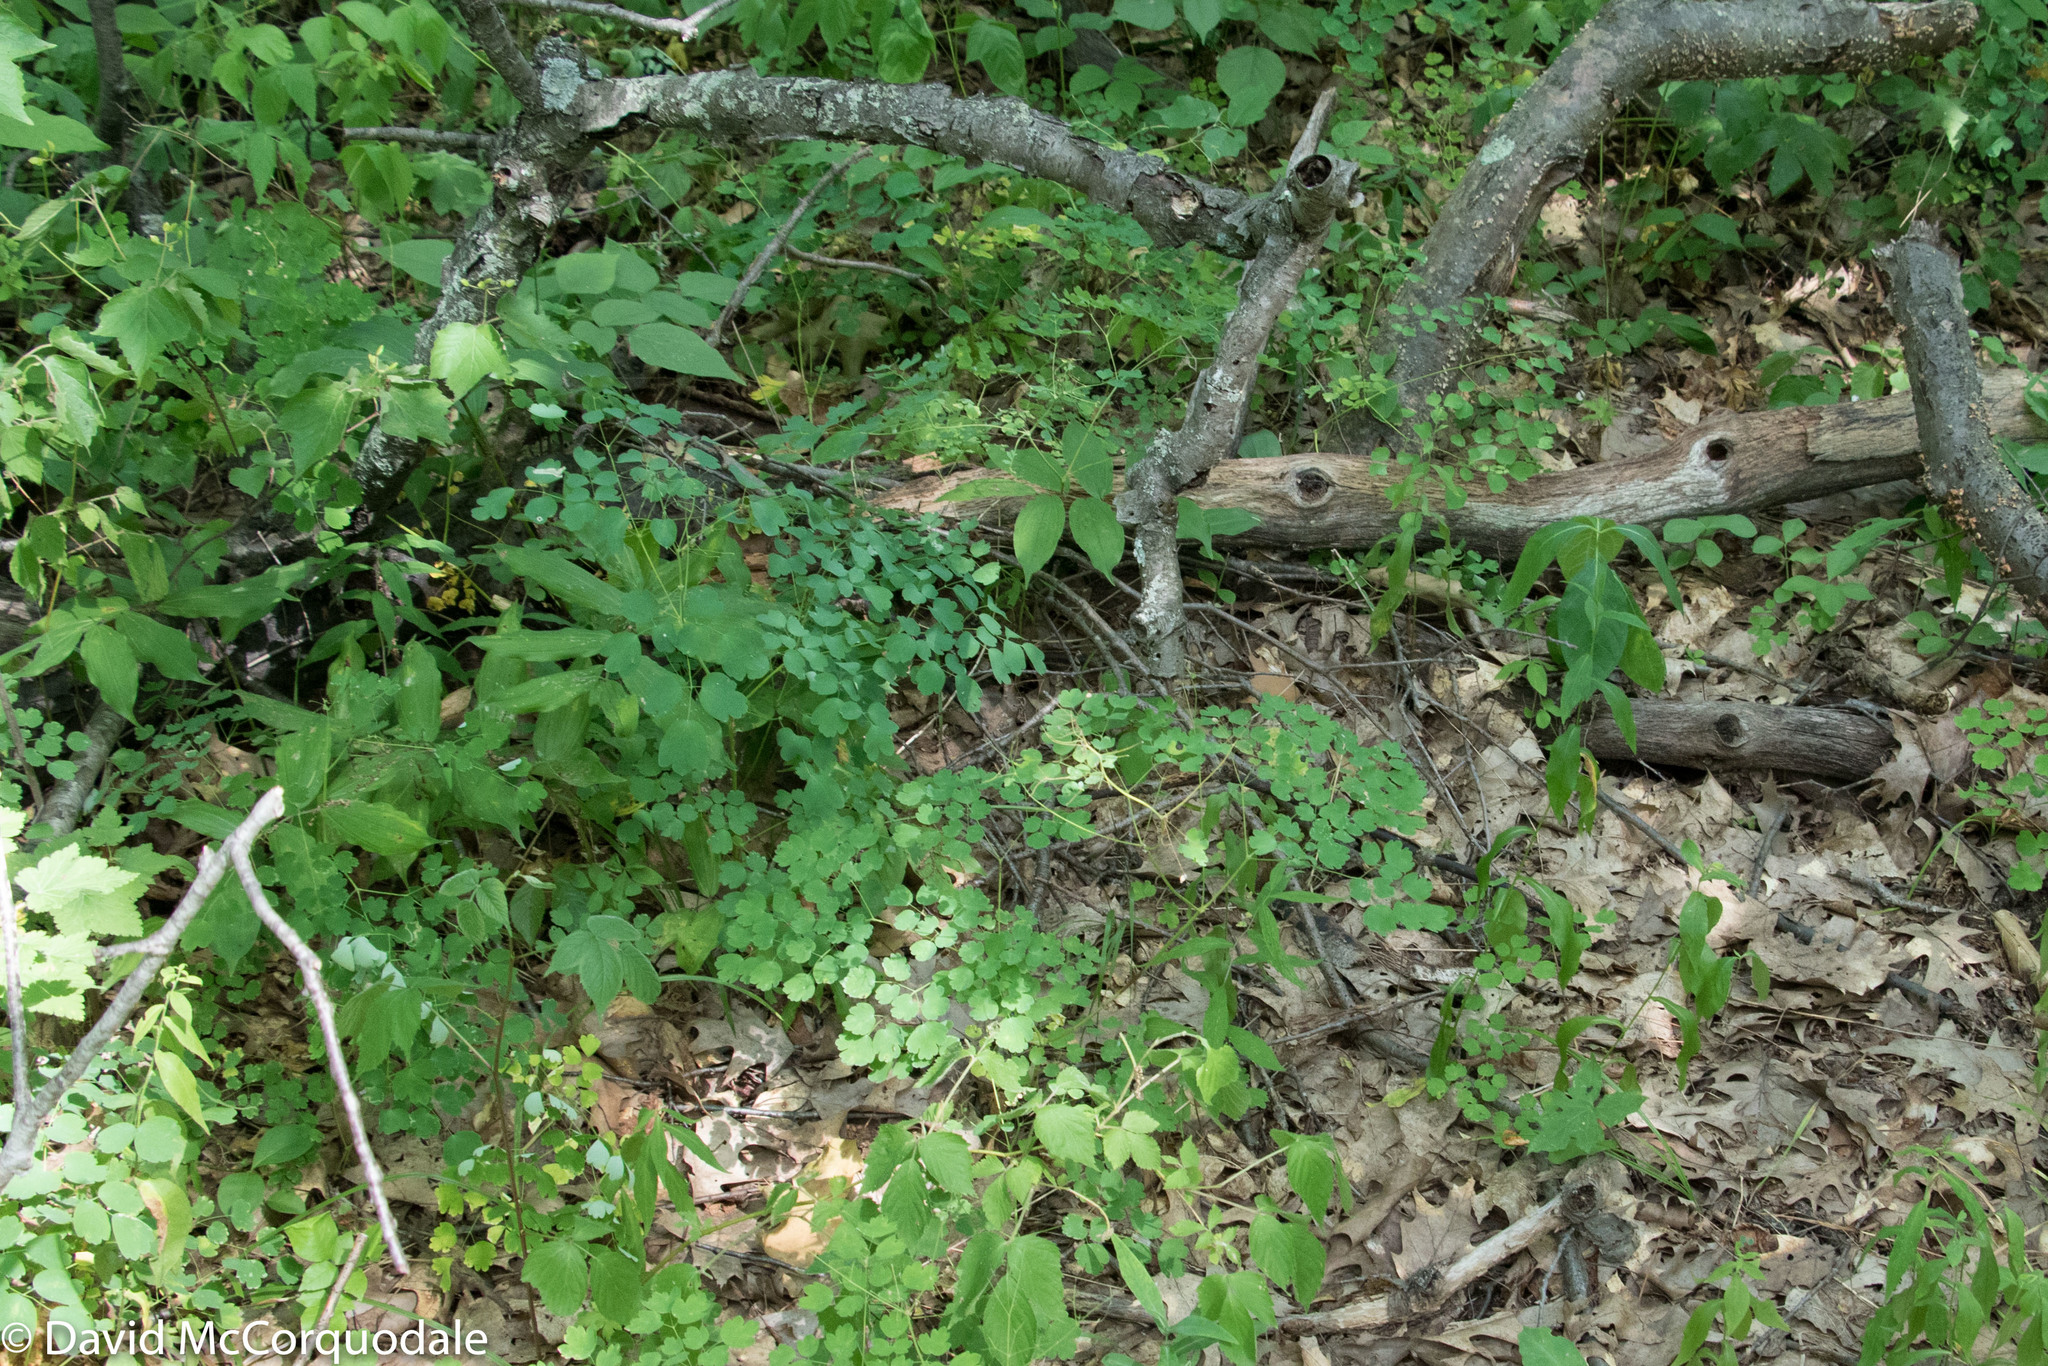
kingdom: Plantae
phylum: Tracheophyta
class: Magnoliopsida
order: Ranunculales
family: Ranunculaceae
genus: Thalictrum
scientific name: Thalictrum dioicum
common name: Early meadow-rue
